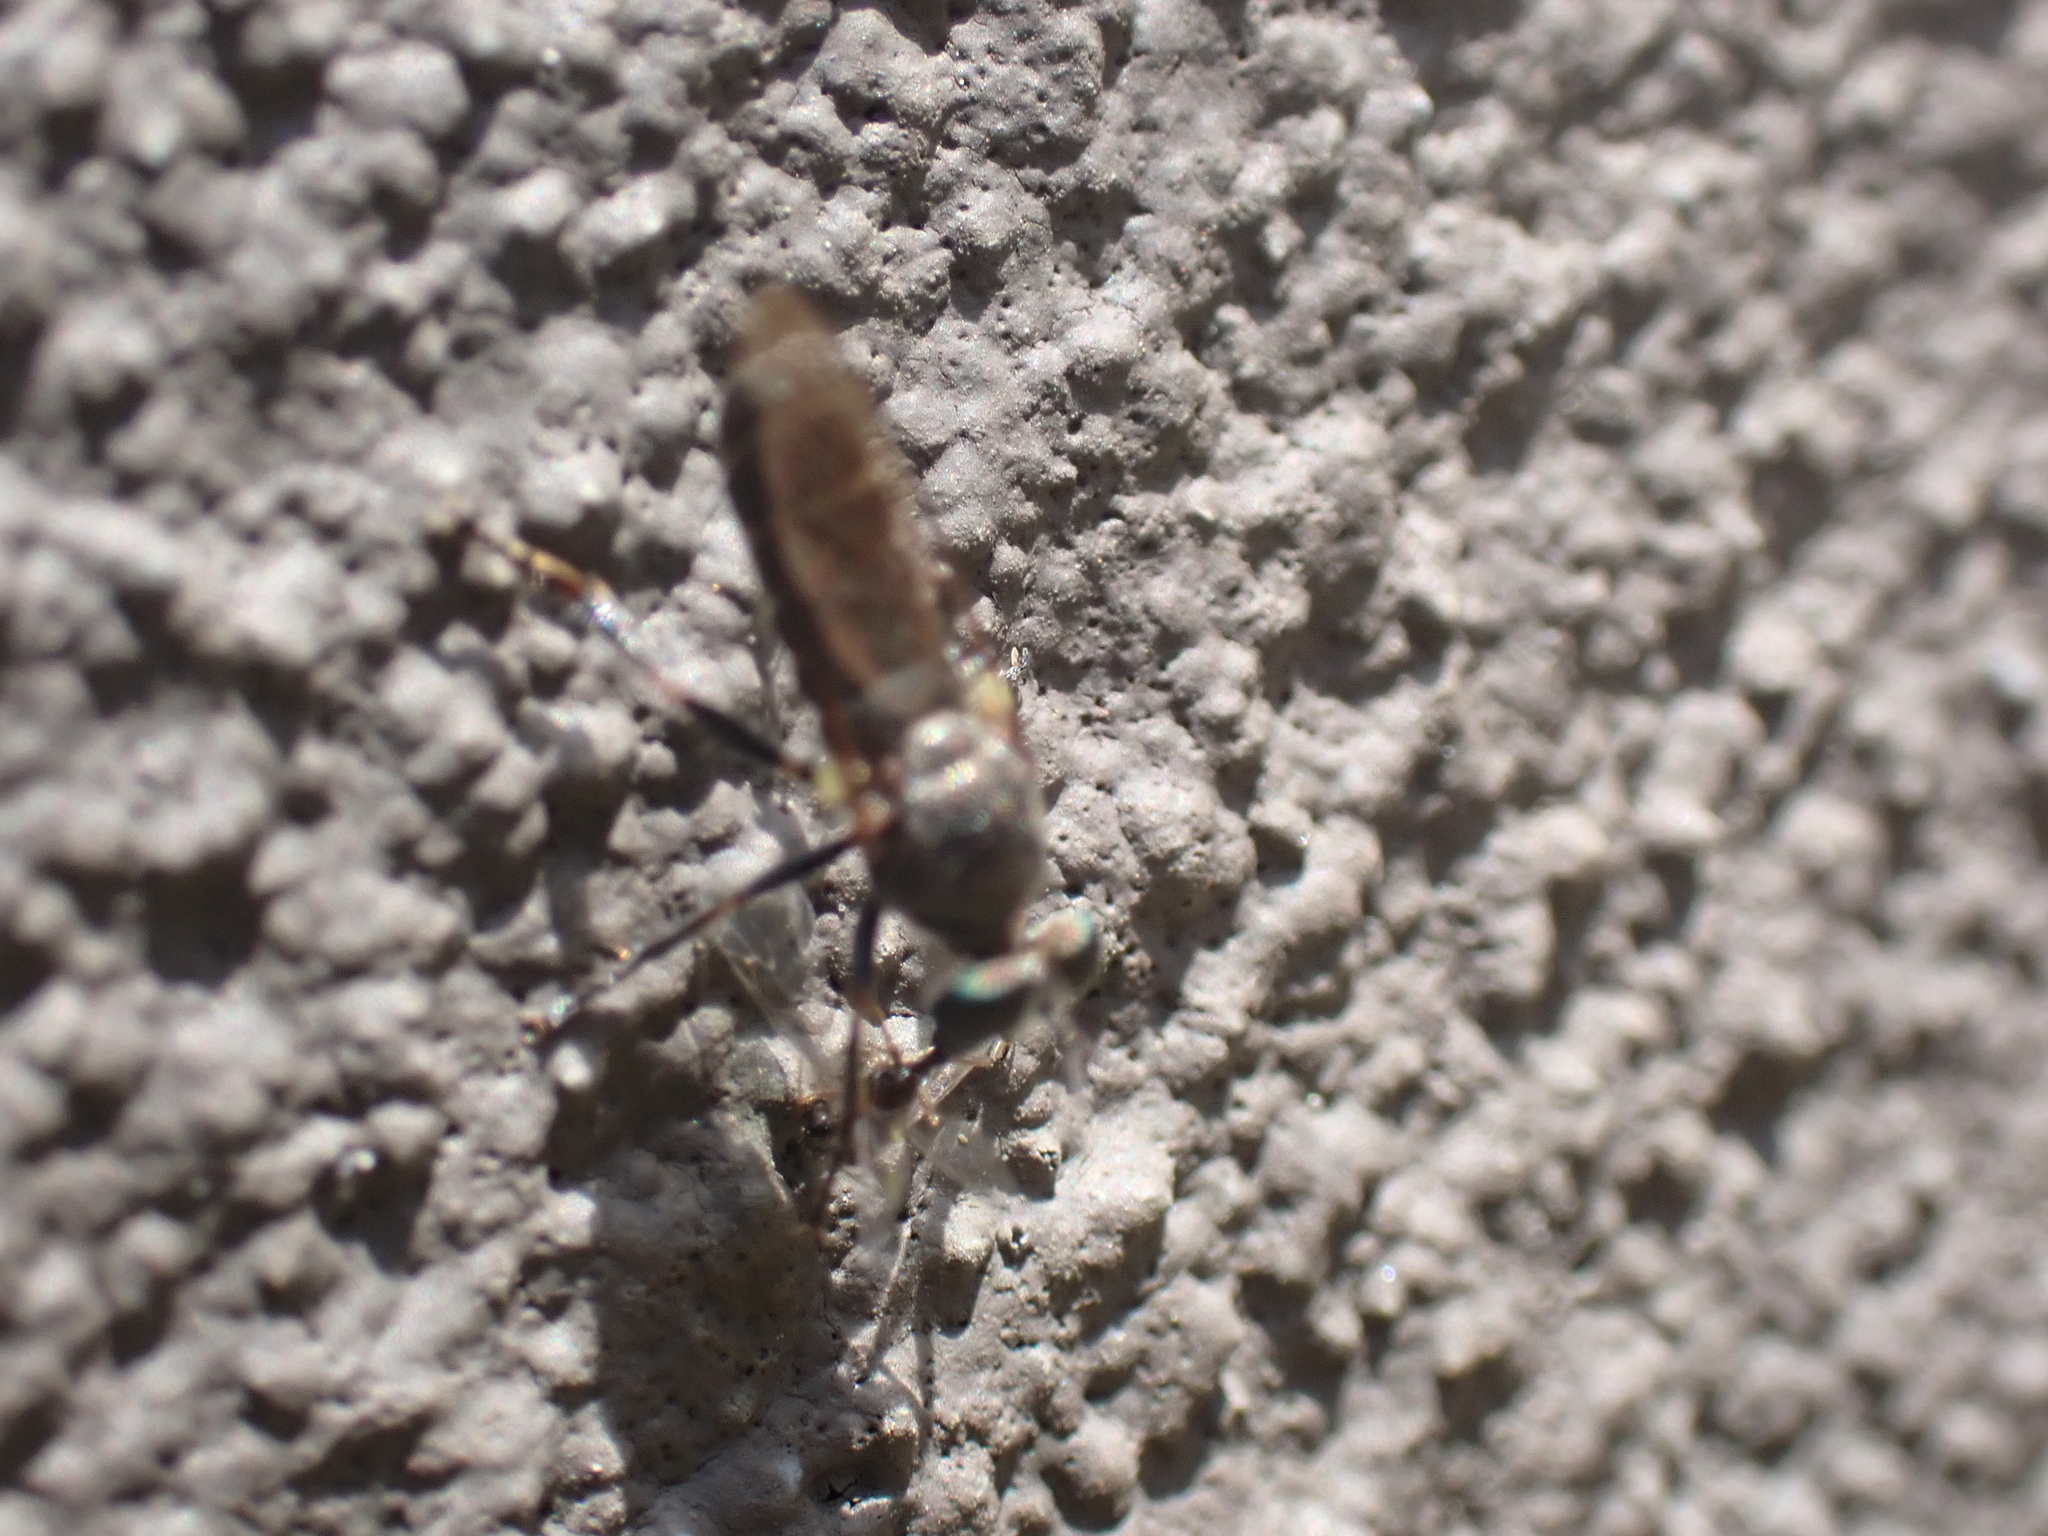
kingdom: Animalia
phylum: Arthropoda
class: Insecta
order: Diptera
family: Asilidae
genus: Atomosia
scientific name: Atomosia puella
